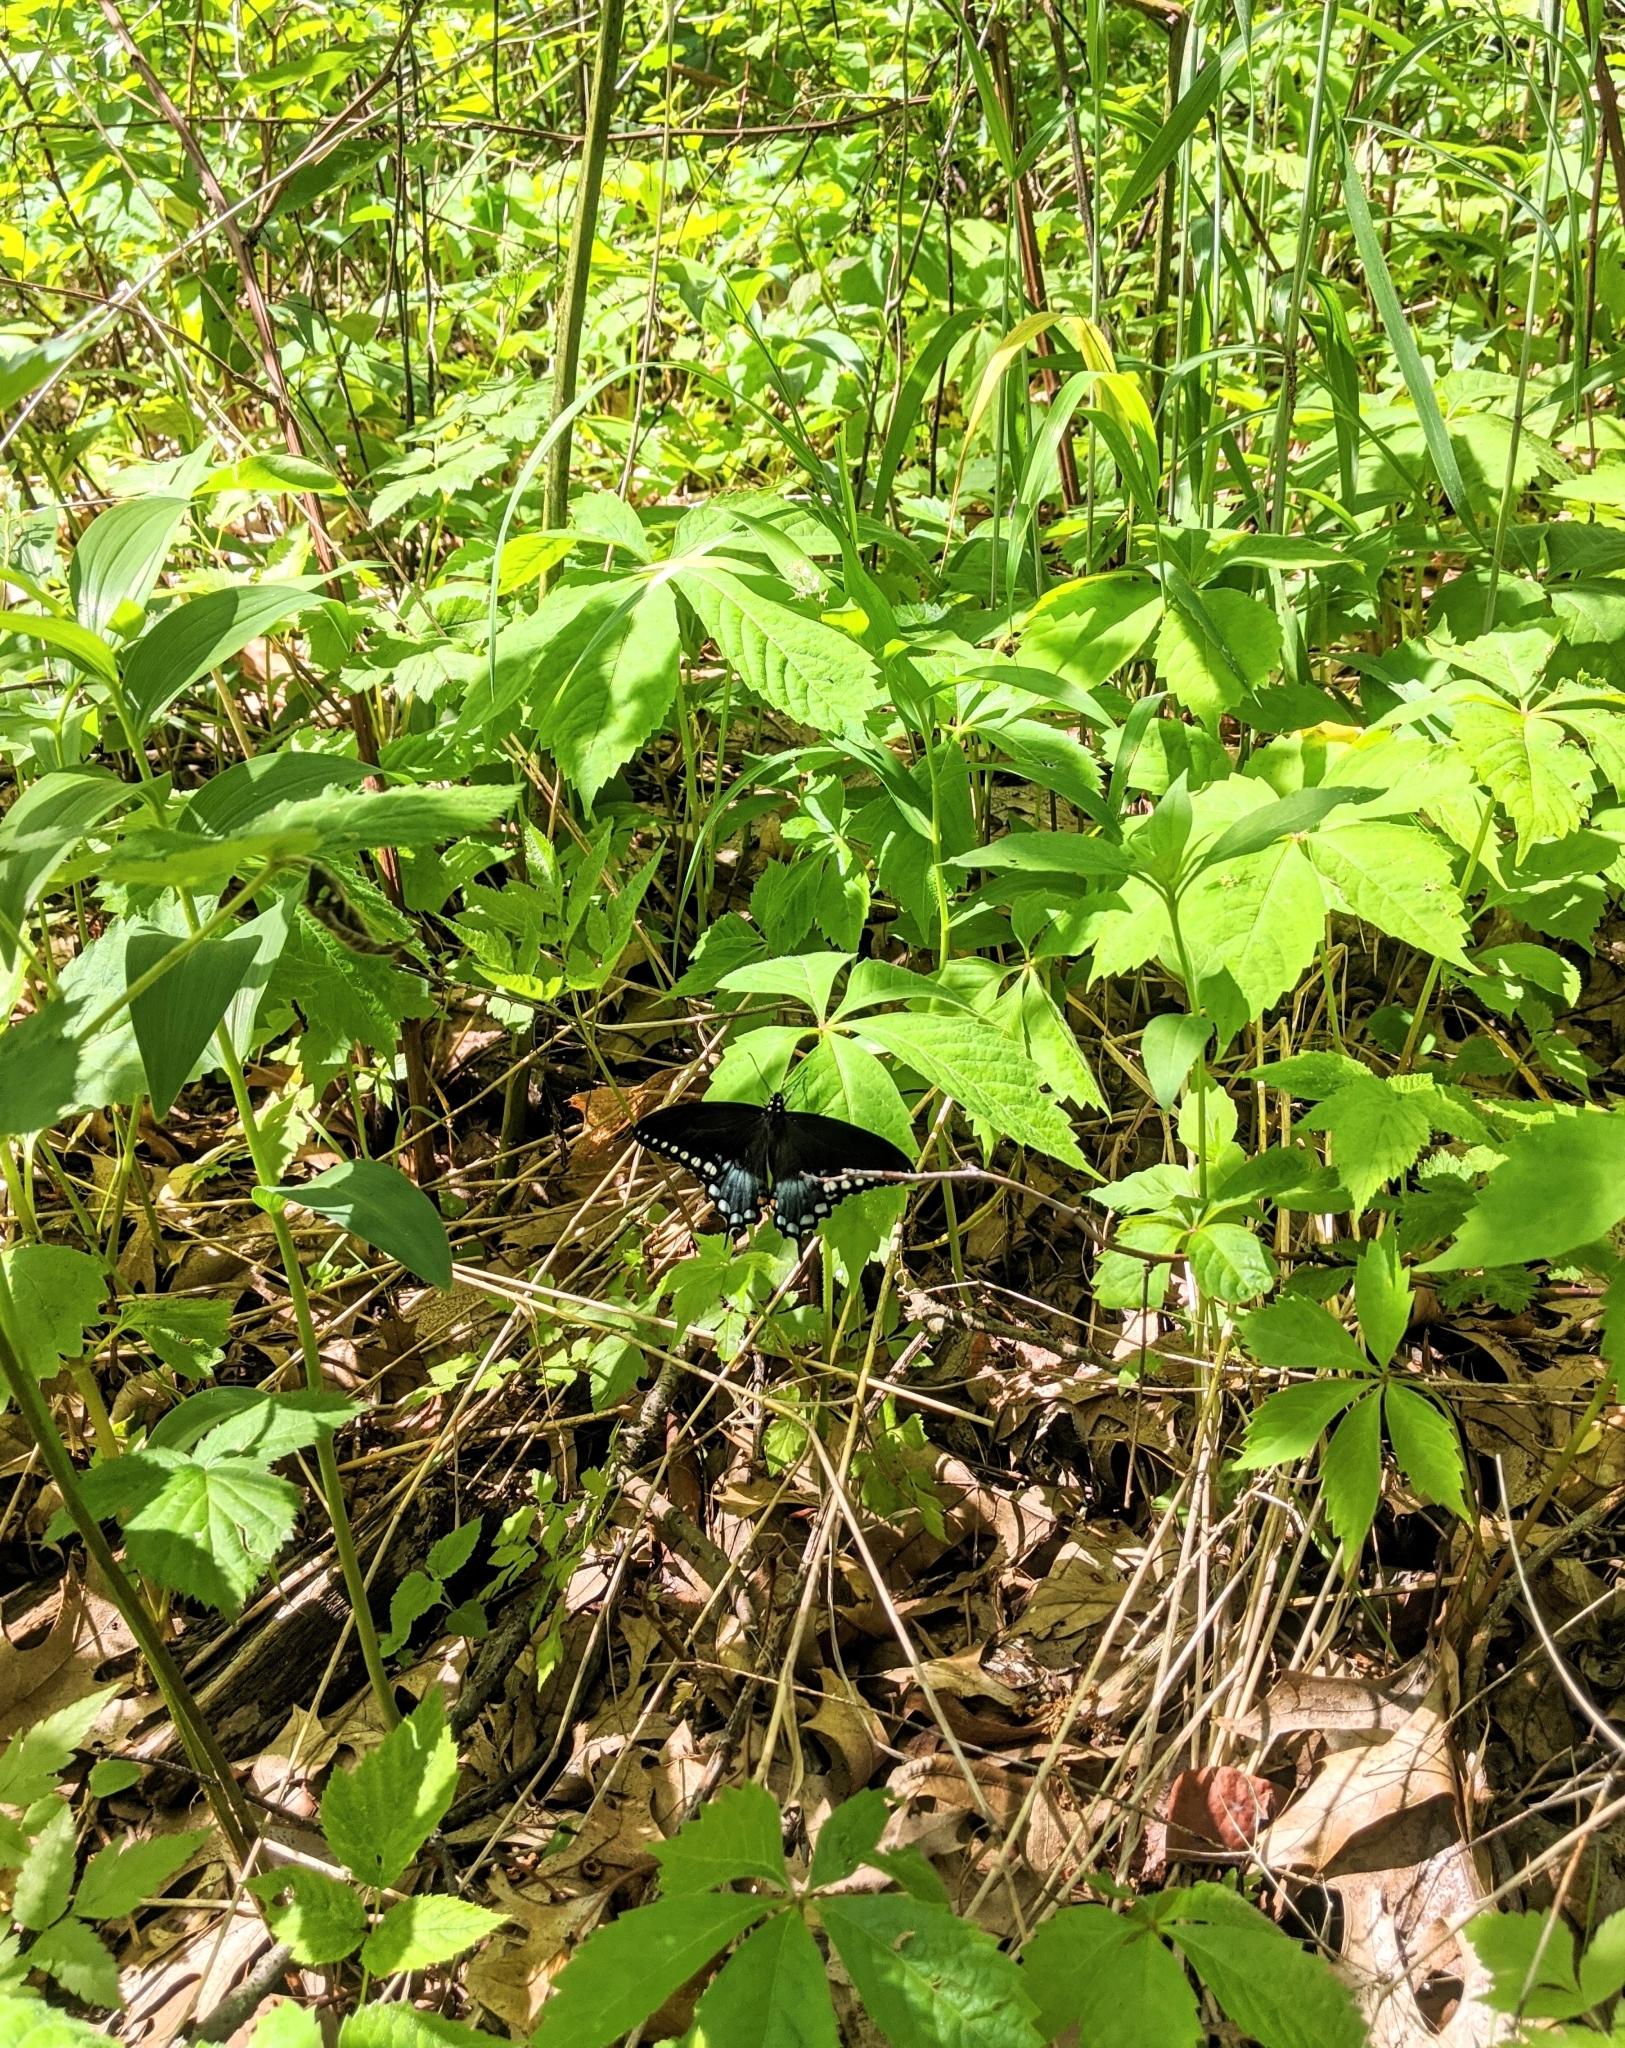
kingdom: Animalia
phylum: Arthropoda
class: Insecta
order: Lepidoptera
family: Papilionidae
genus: Papilio
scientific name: Papilio troilus
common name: Spicebush swallowtail
